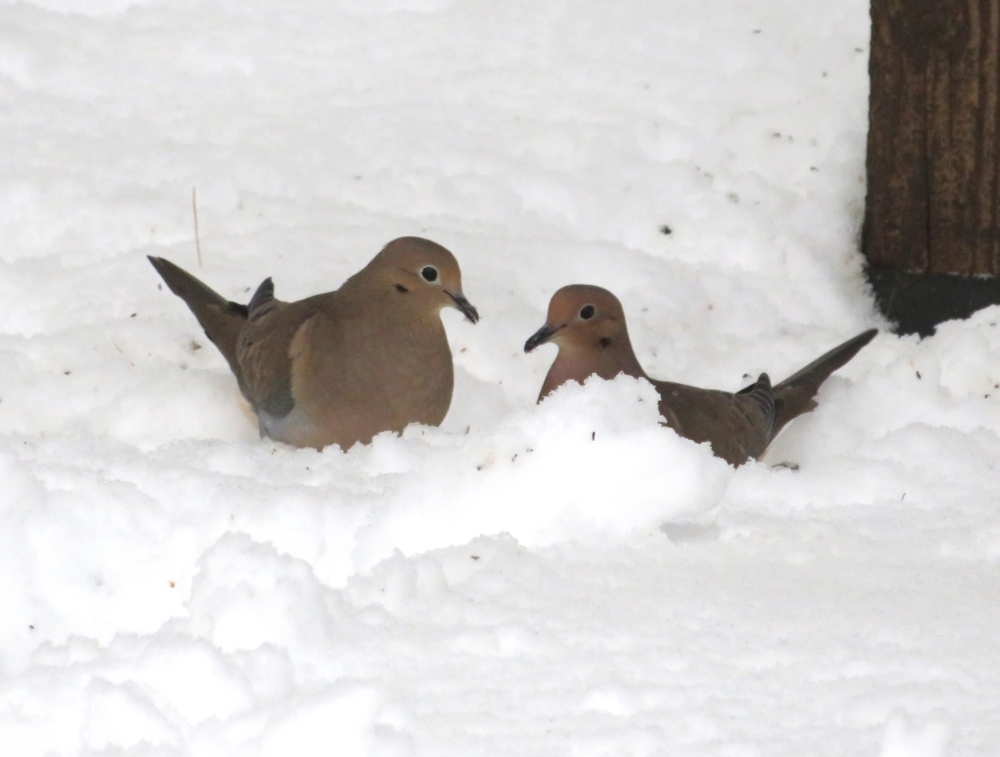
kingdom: Animalia
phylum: Chordata
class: Aves
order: Columbiformes
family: Columbidae
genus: Zenaida
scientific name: Zenaida macroura
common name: Mourning dove
